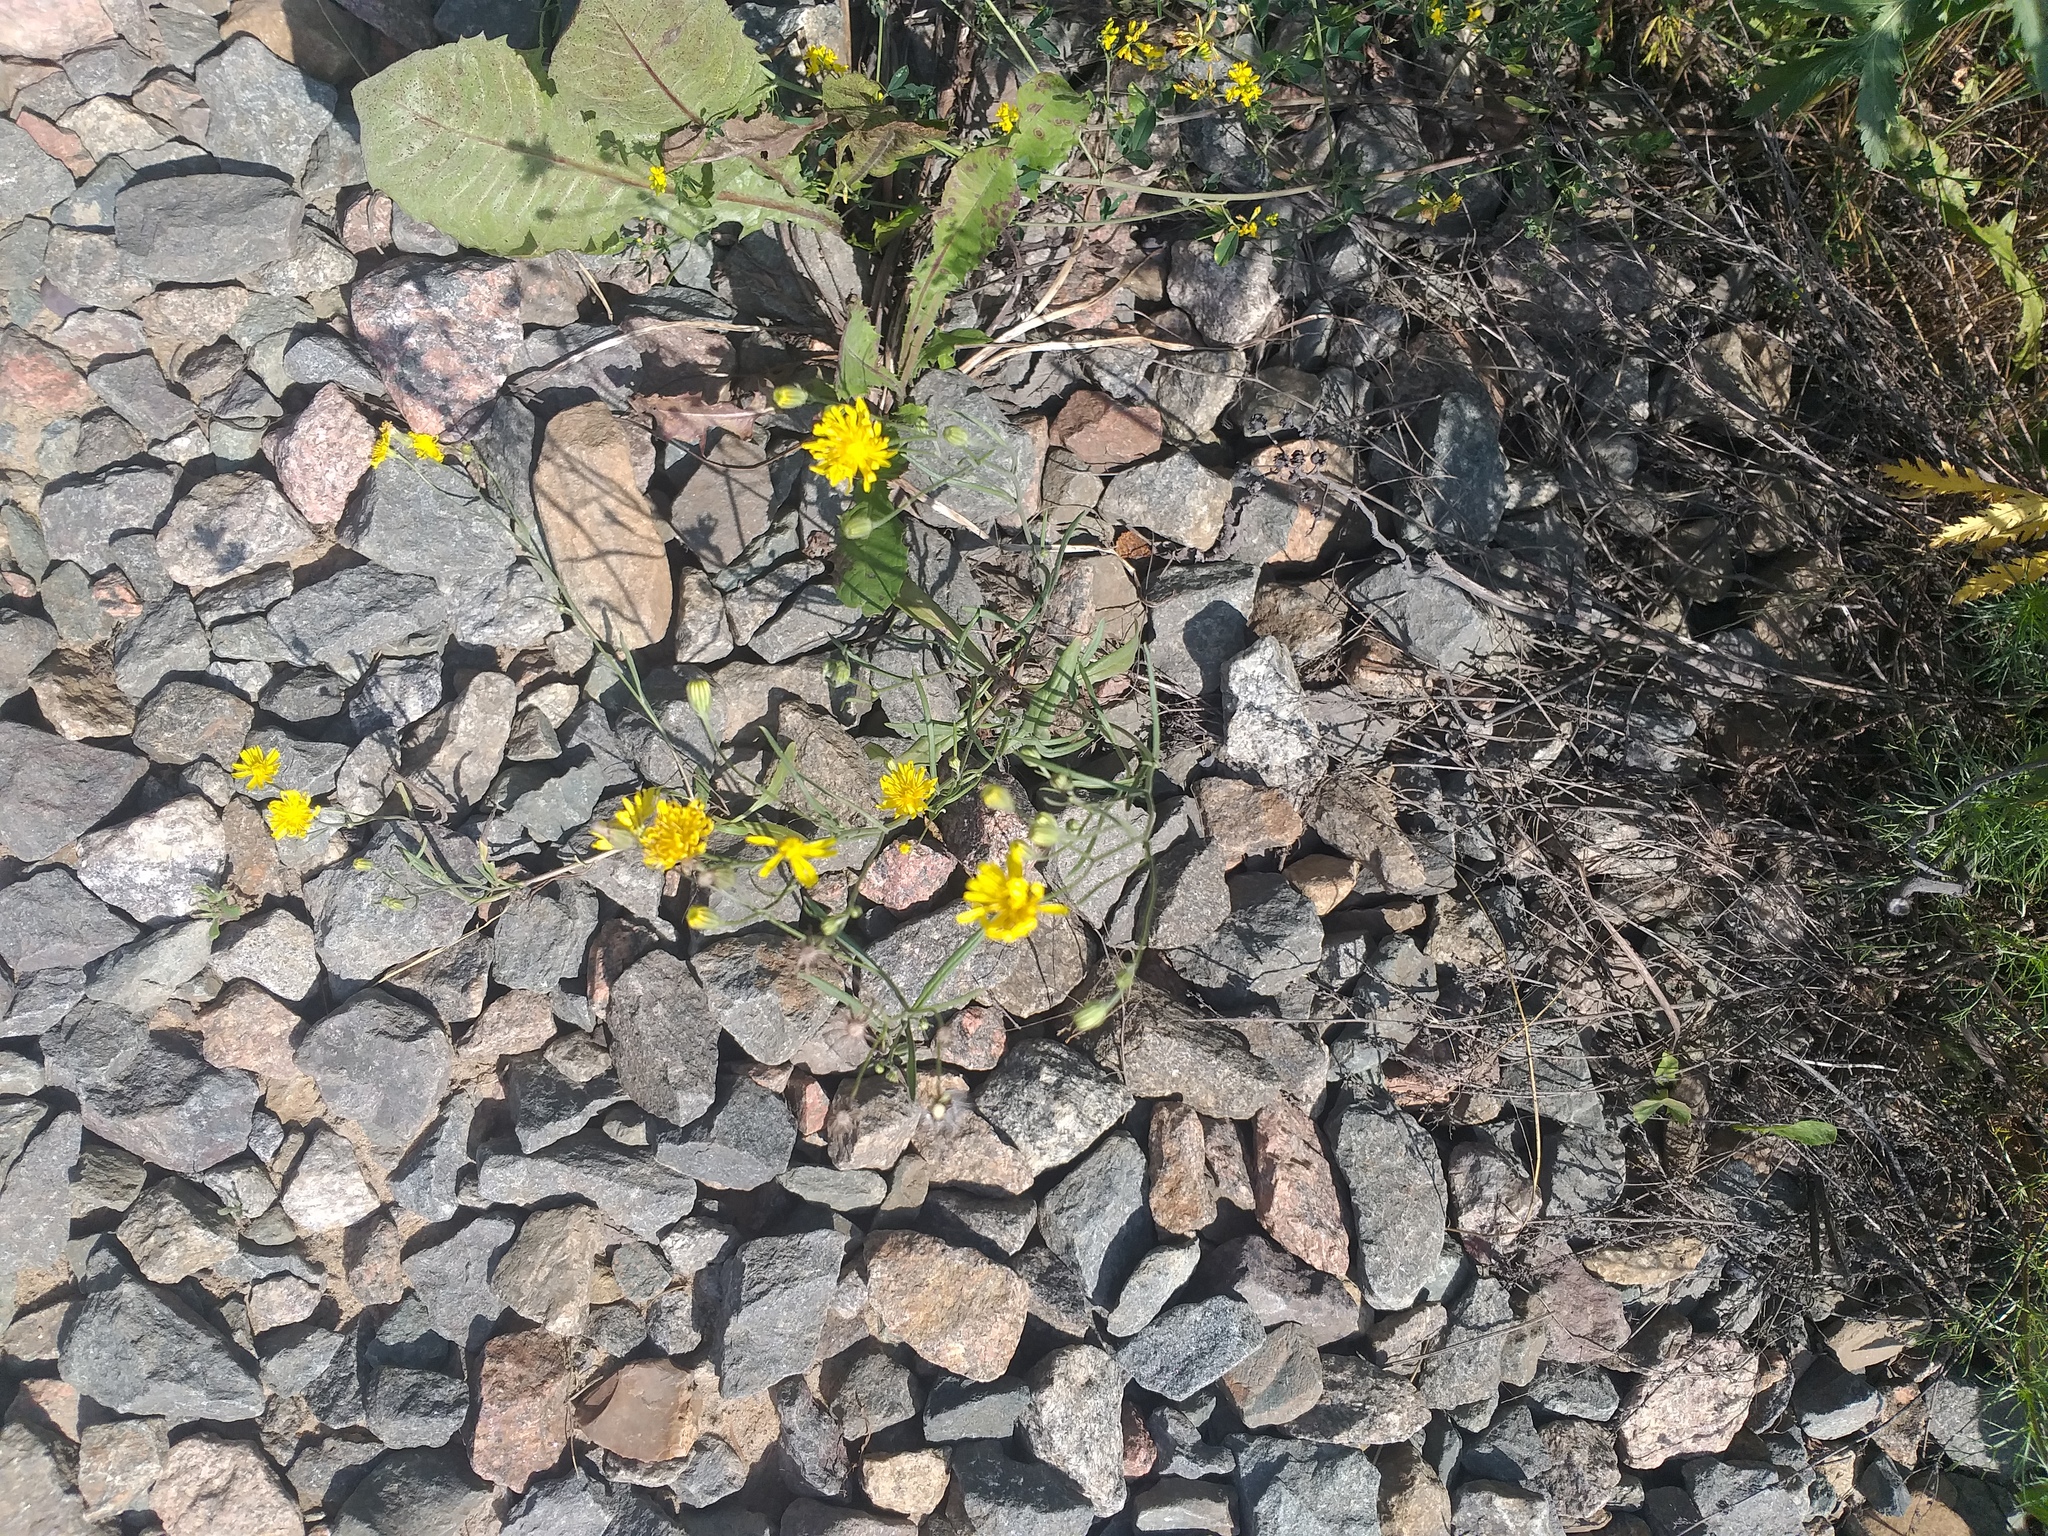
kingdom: Plantae
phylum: Tracheophyta
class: Magnoliopsida
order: Asterales
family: Asteraceae
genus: Crepis
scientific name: Crepis tectorum
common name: Narrow-leaved hawk's-beard
